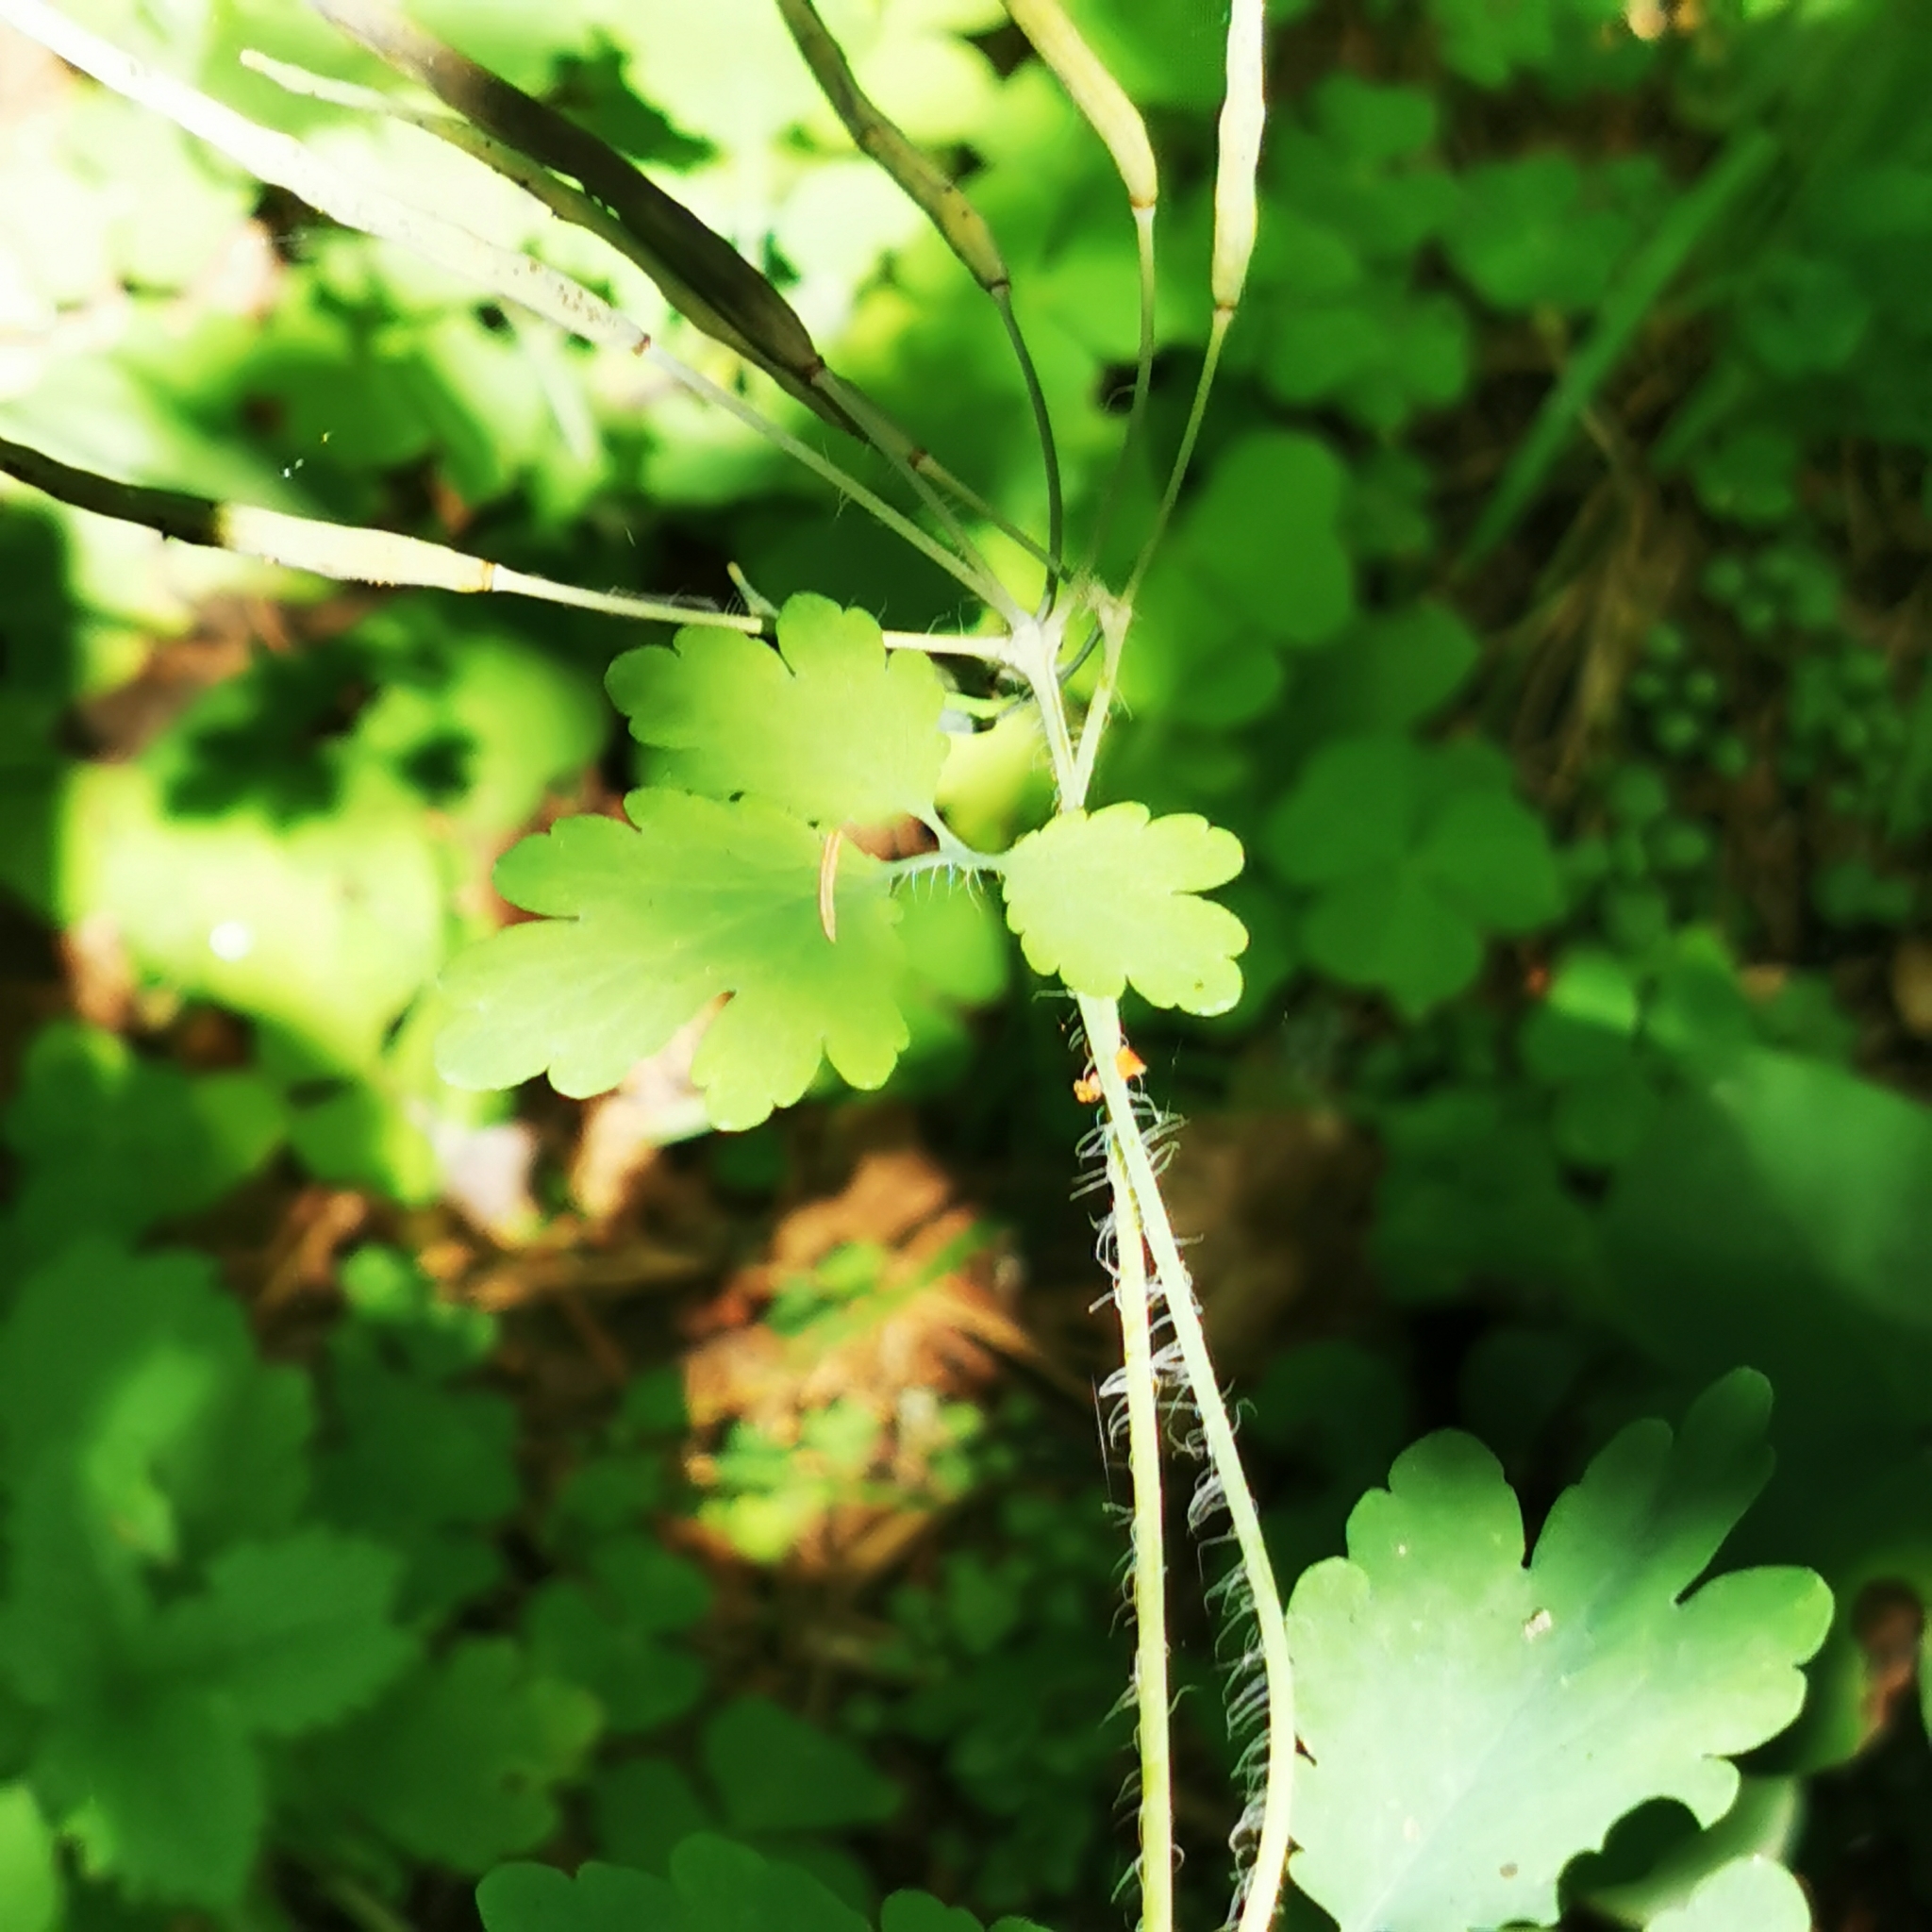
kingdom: Plantae
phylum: Tracheophyta
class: Magnoliopsida
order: Ranunculales
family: Papaveraceae
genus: Chelidonium
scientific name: Chelidonium majus
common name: Greater celandine
